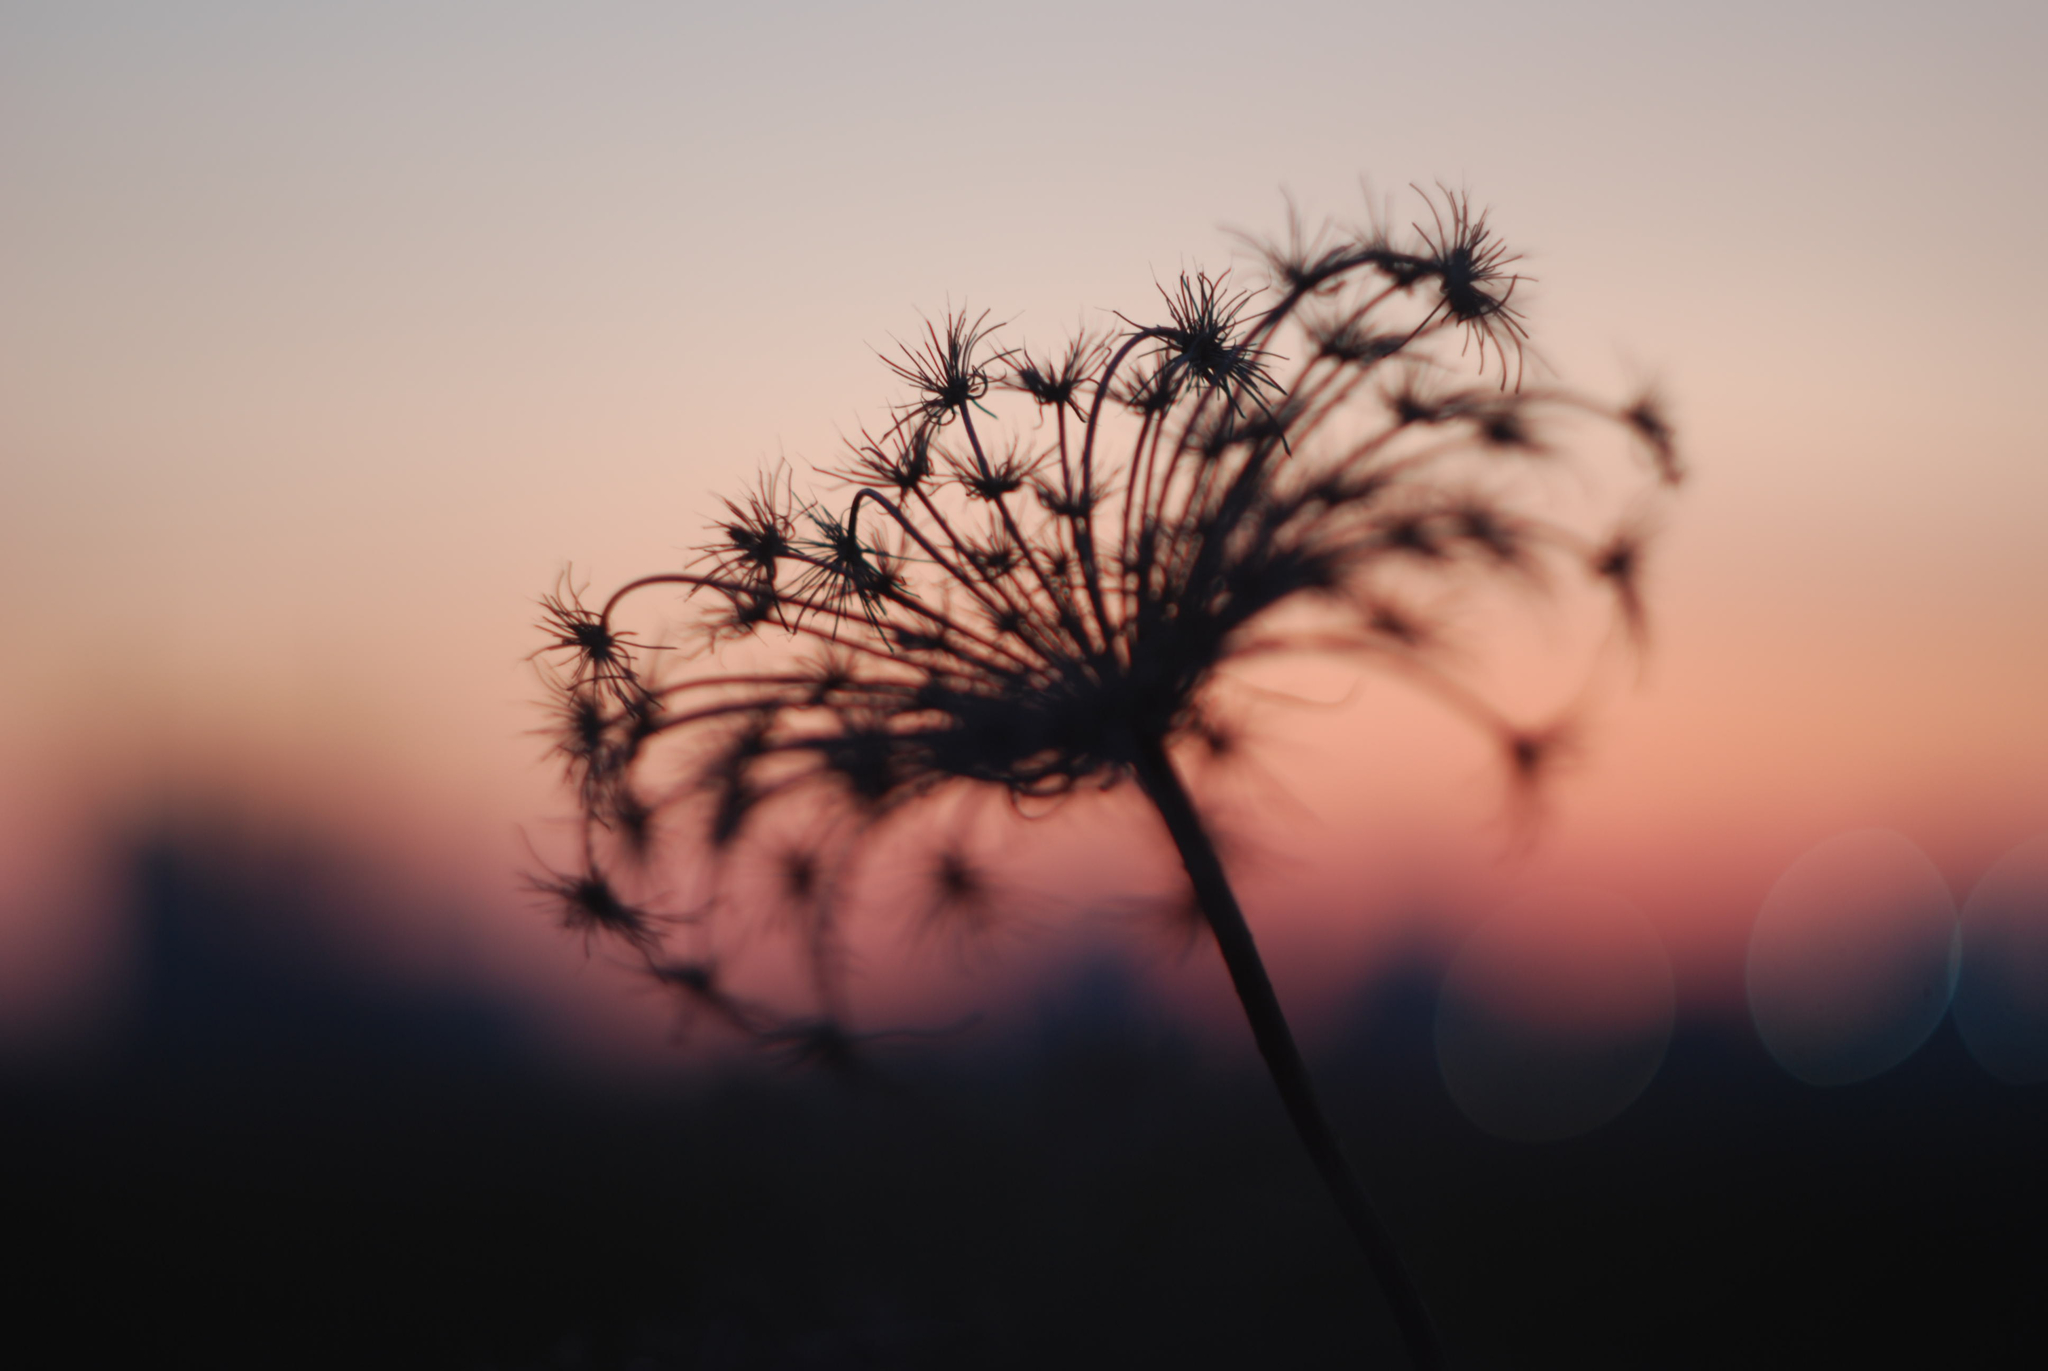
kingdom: Plantae
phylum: Tracheophyta
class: Magnoliopsida
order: Apiales
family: Apiaceae
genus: Daucus
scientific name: Daucus carota
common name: Wild carrot
